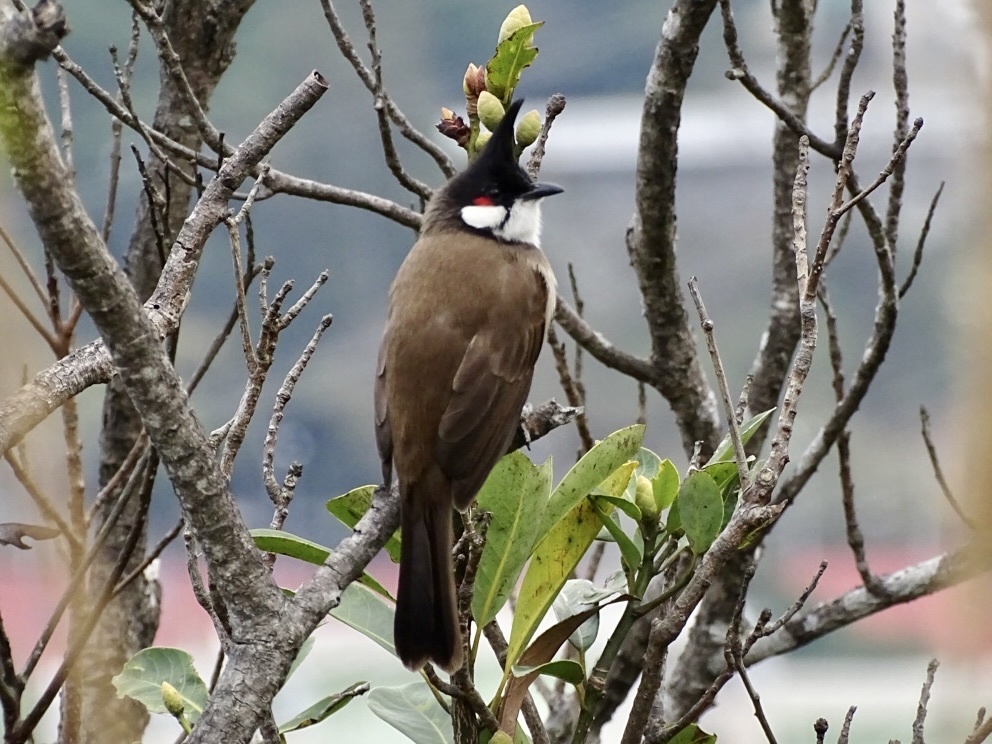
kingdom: Animalia
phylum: Chordata
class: Aves
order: Passeriformes
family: Pycnonotidae
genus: Pycnonotus
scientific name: Pycnonotus jocosus
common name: Red-whiskered bulbul
